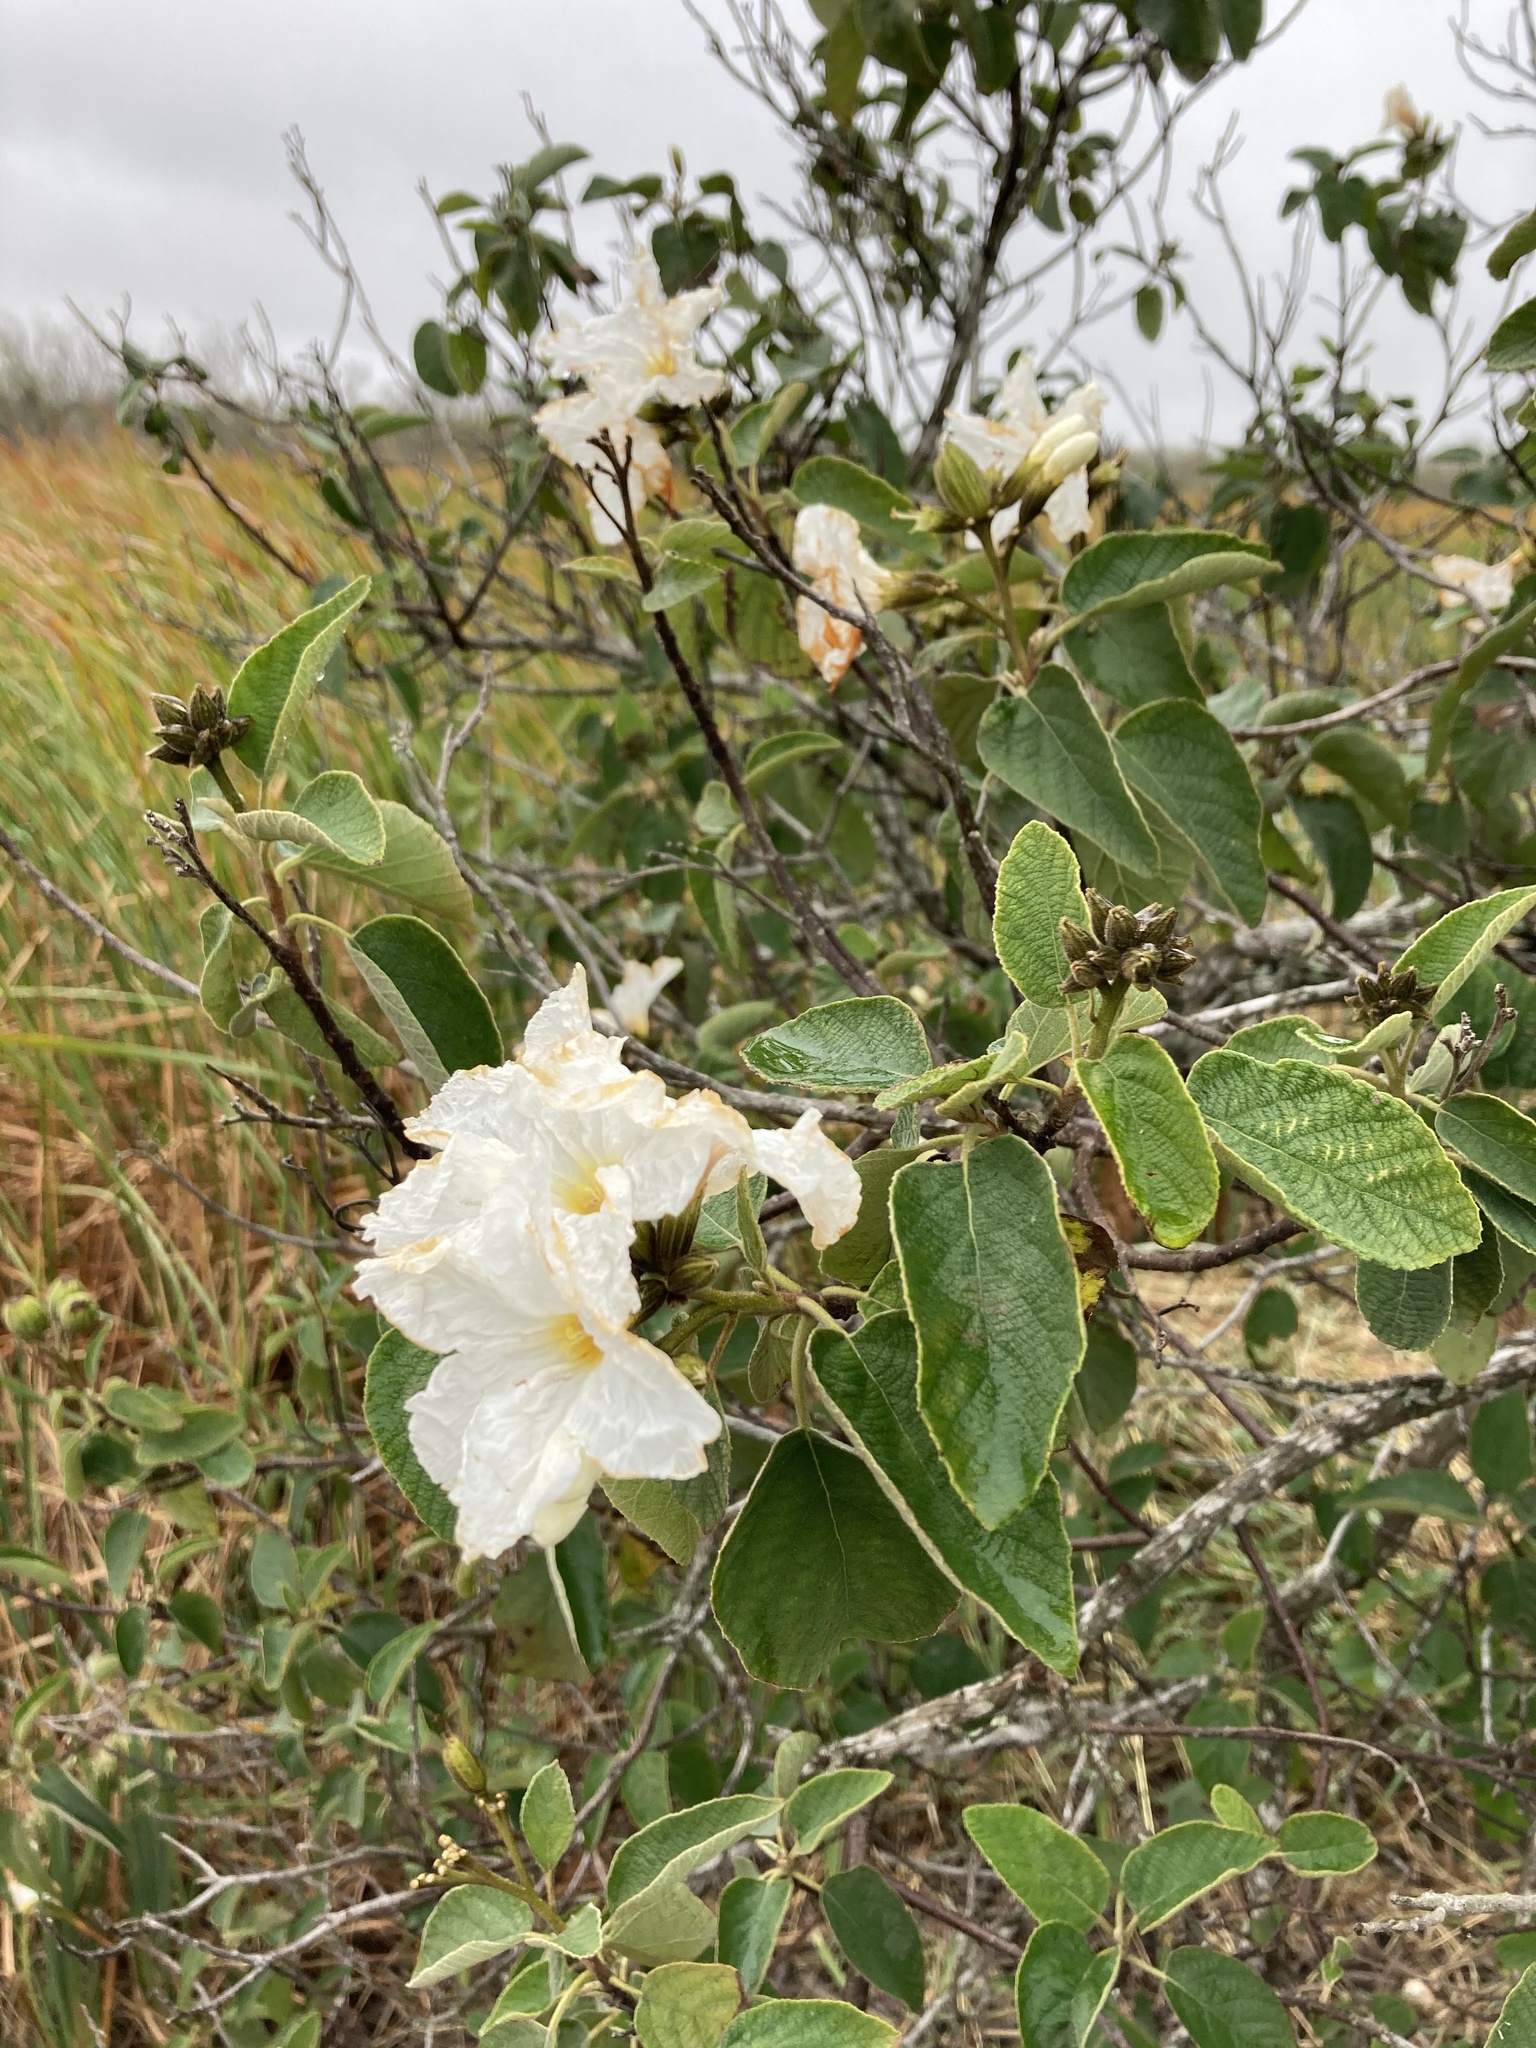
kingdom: Plantae
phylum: Tracheophyta
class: Magnoliopsida
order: Boraginales
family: Cordiaceae
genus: Cordia
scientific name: Cordia boissieri
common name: Mexican-olive
